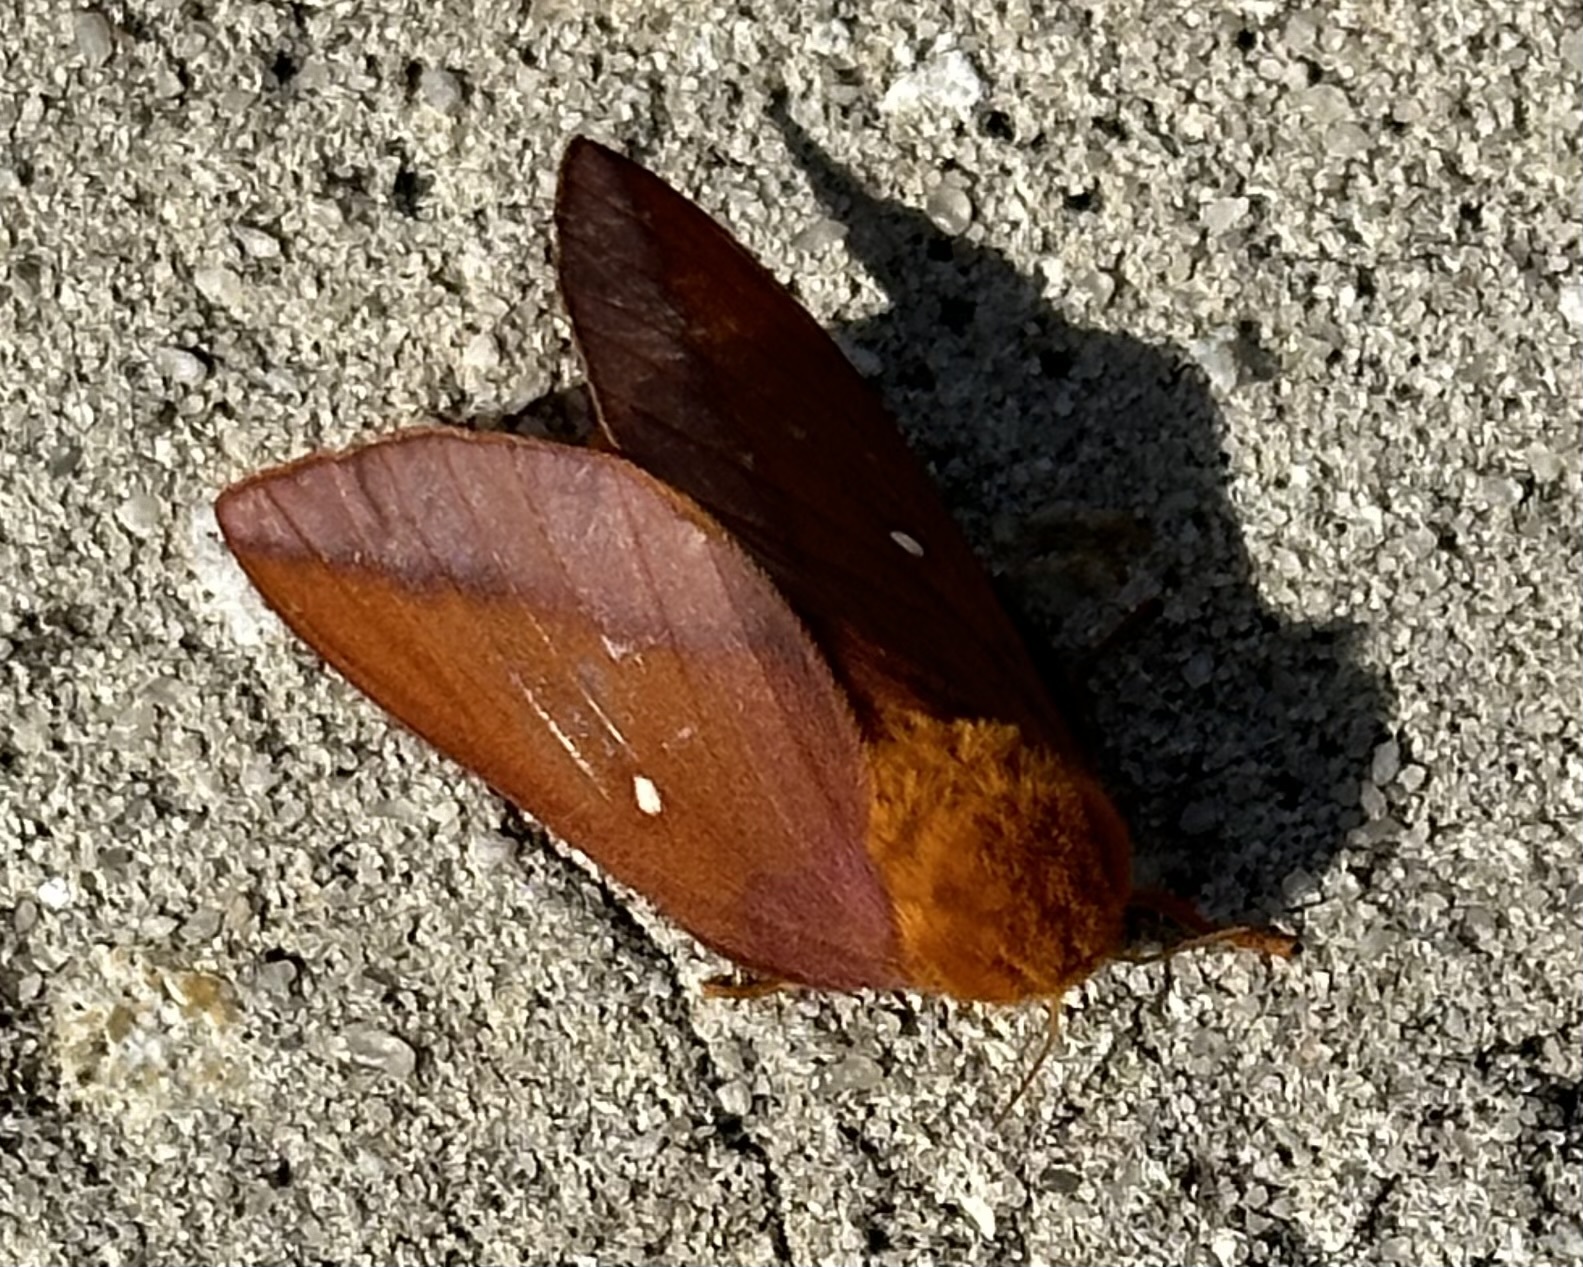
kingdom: Animalia
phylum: Arthropoda
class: Insecta
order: Lepidoptera
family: Saturniidae
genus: Anisota
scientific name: Anisota virginiensis
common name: Pink striped oakworm moth
